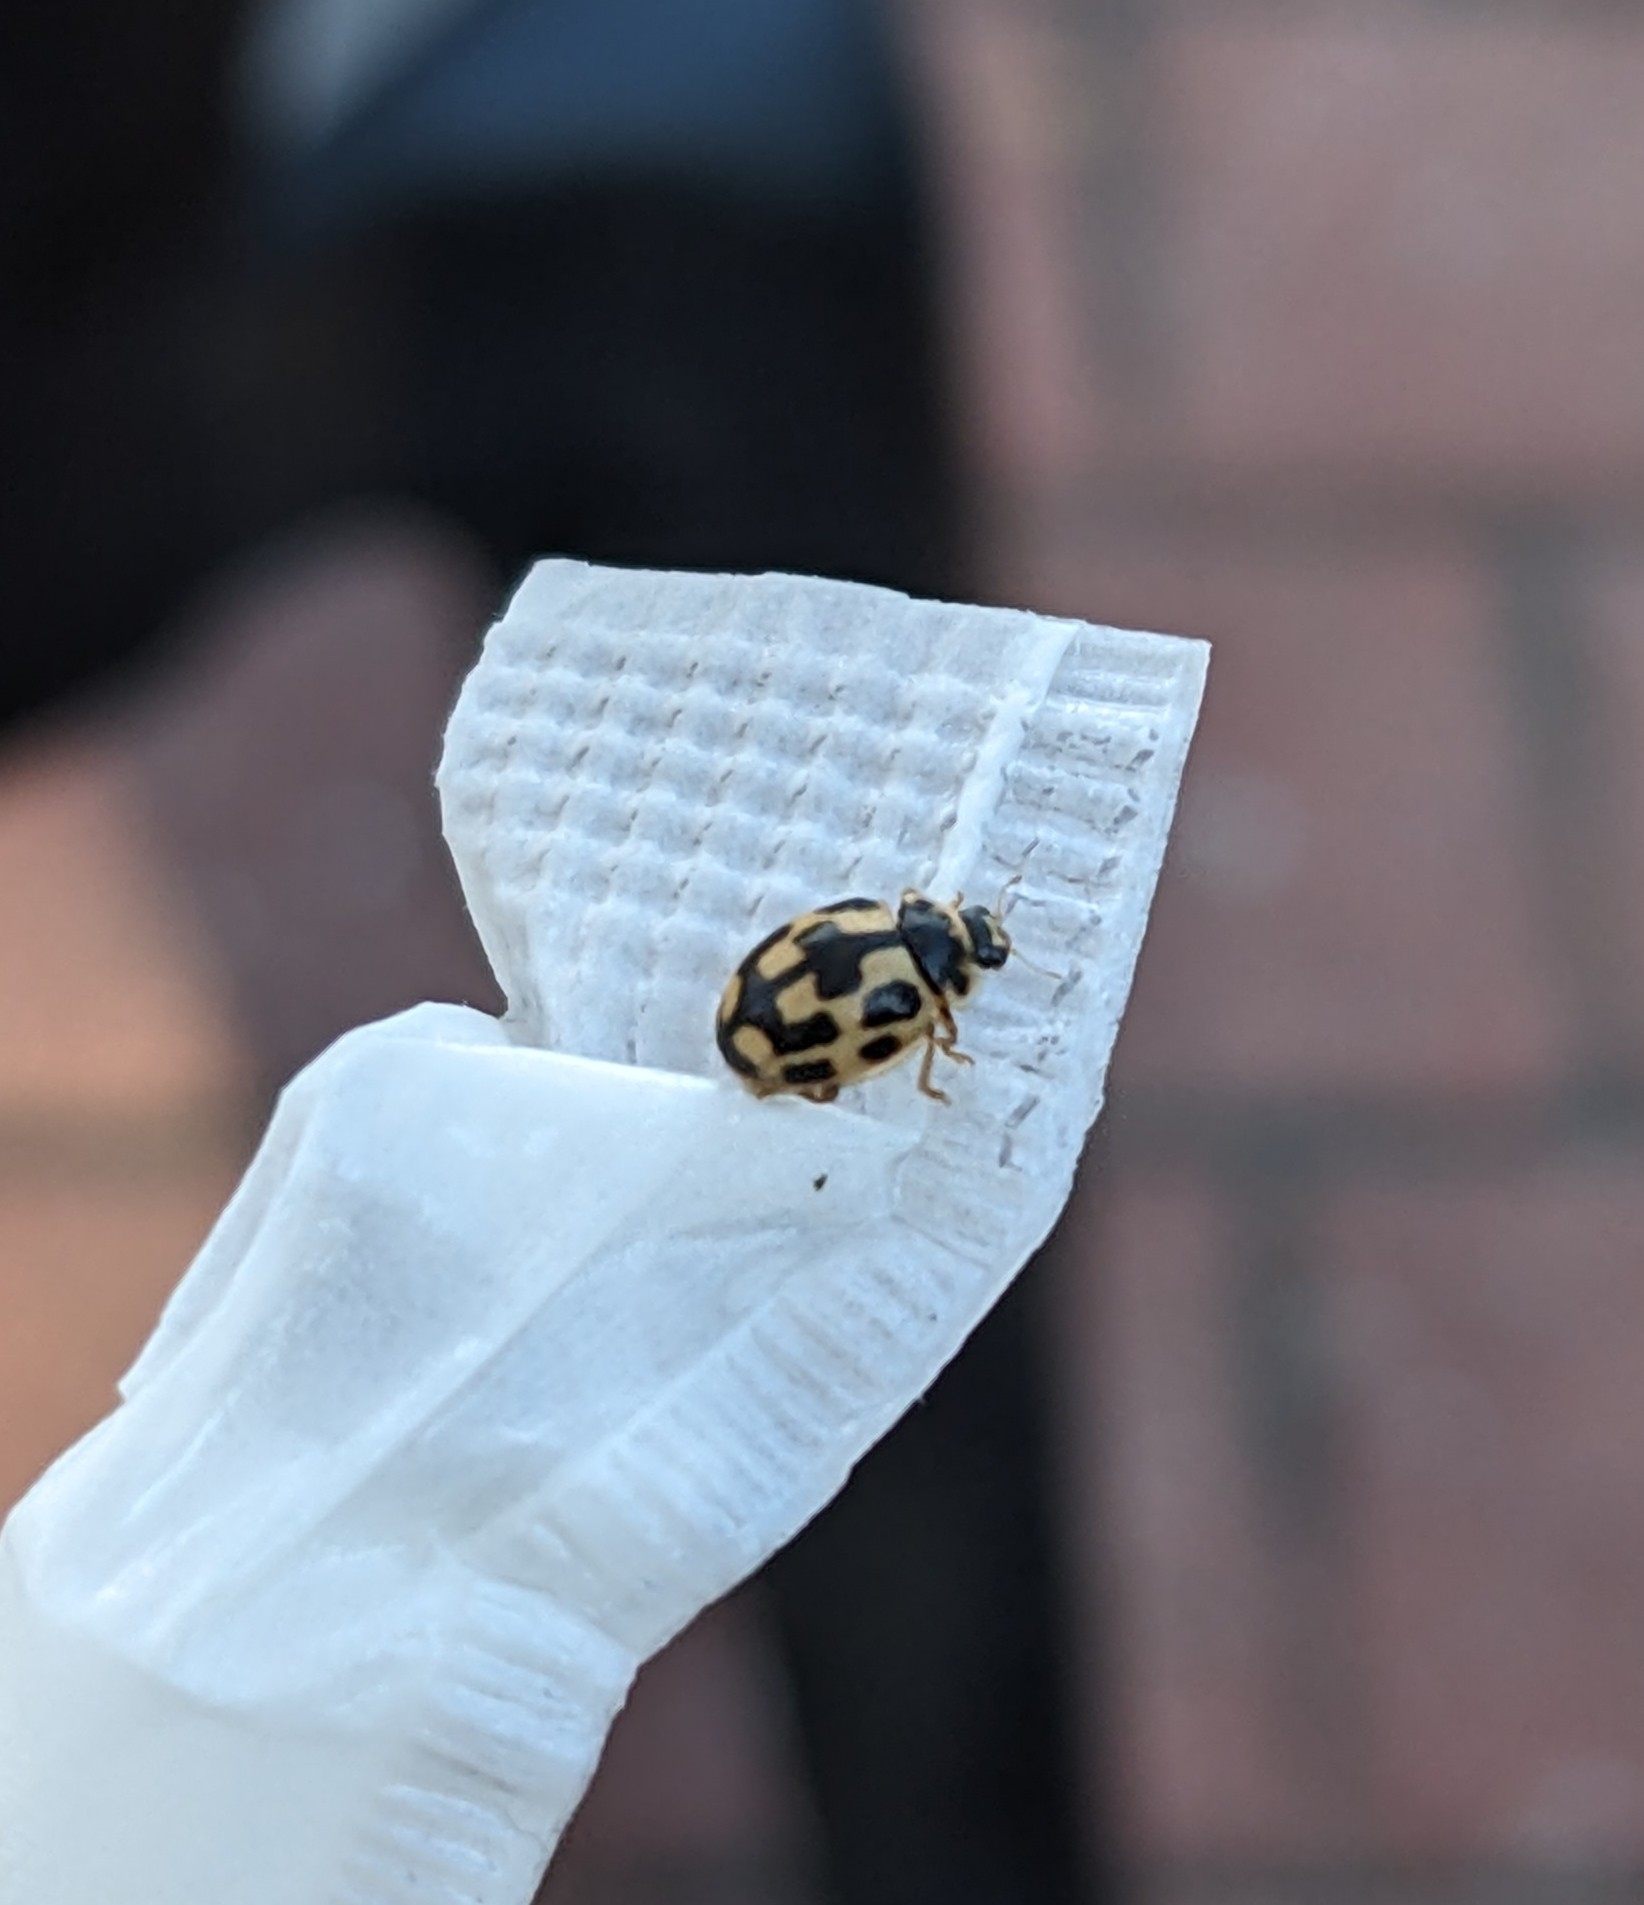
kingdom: Animalia
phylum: Arthropoda
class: Insecta
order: Coleoptera
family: Coccinellidae
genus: Propylaea
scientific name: Propylaea quatuordecimpunctata
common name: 14-spotted ladybird beetle
